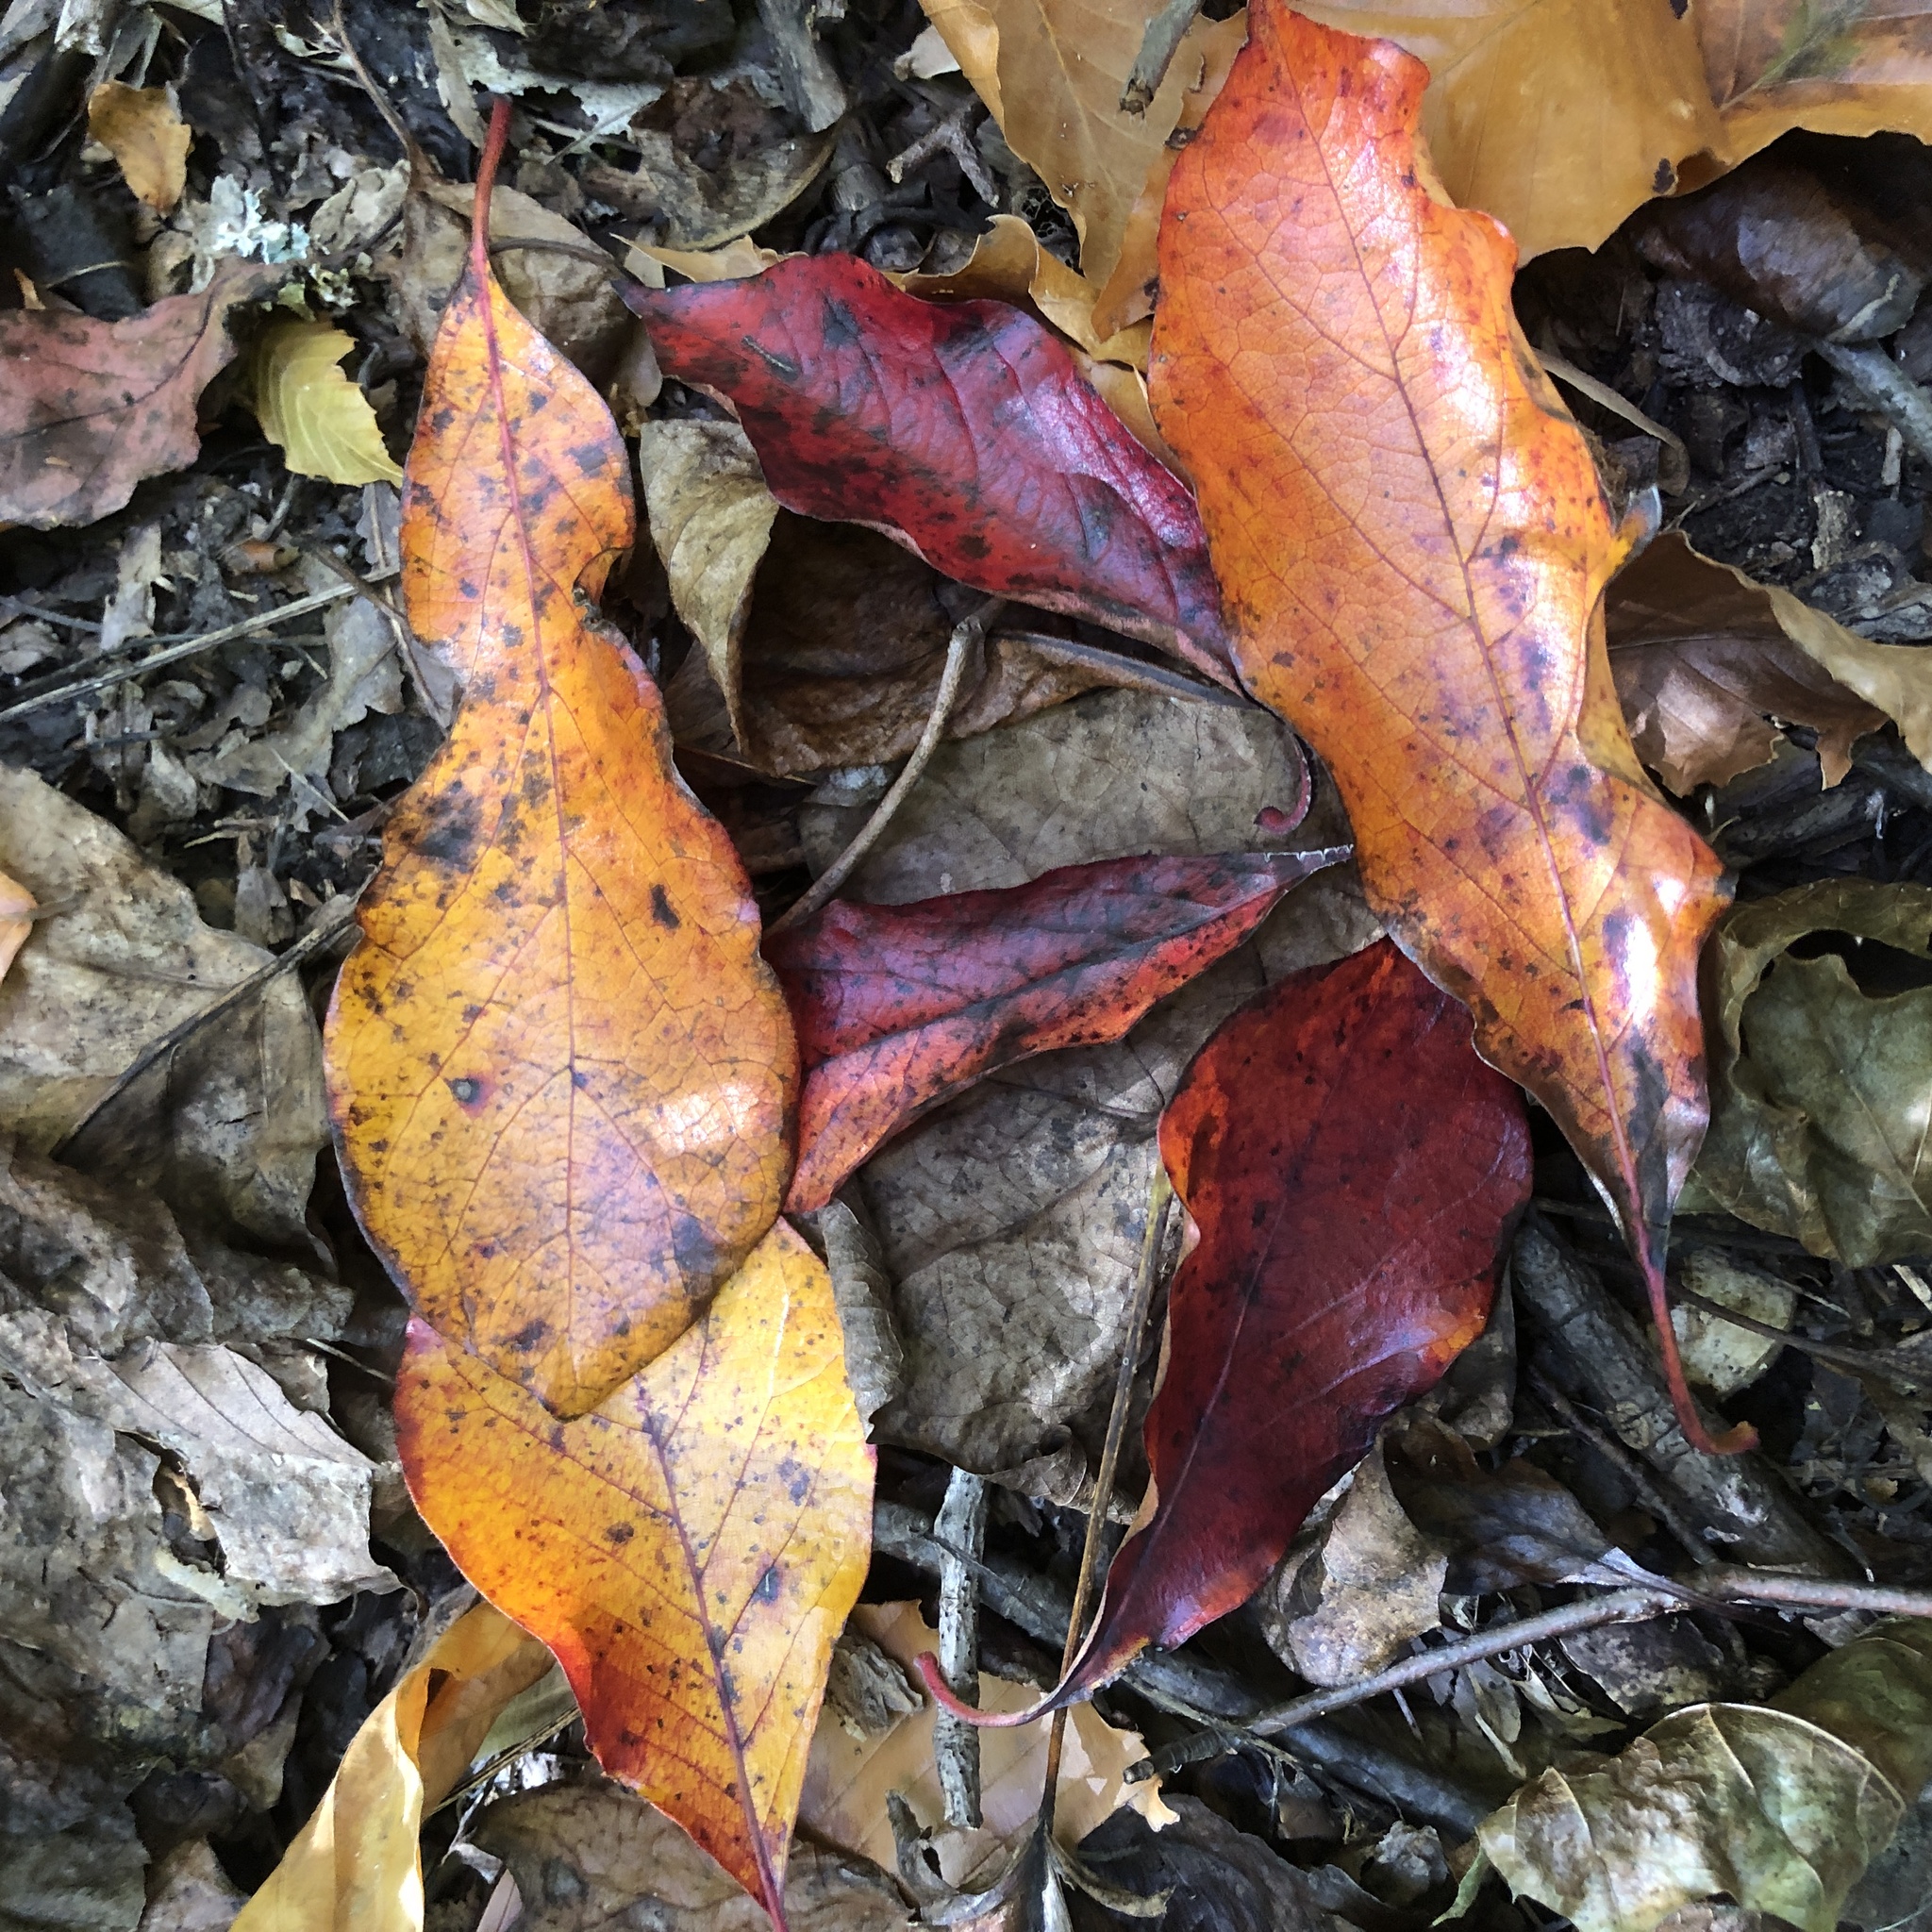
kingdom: Plantae
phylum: Tracheophyta
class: Magnoliopsida
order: Cornales
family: Nyssaceae
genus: Nyssa
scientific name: Nyssa sylvatica
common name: Black tupelo
